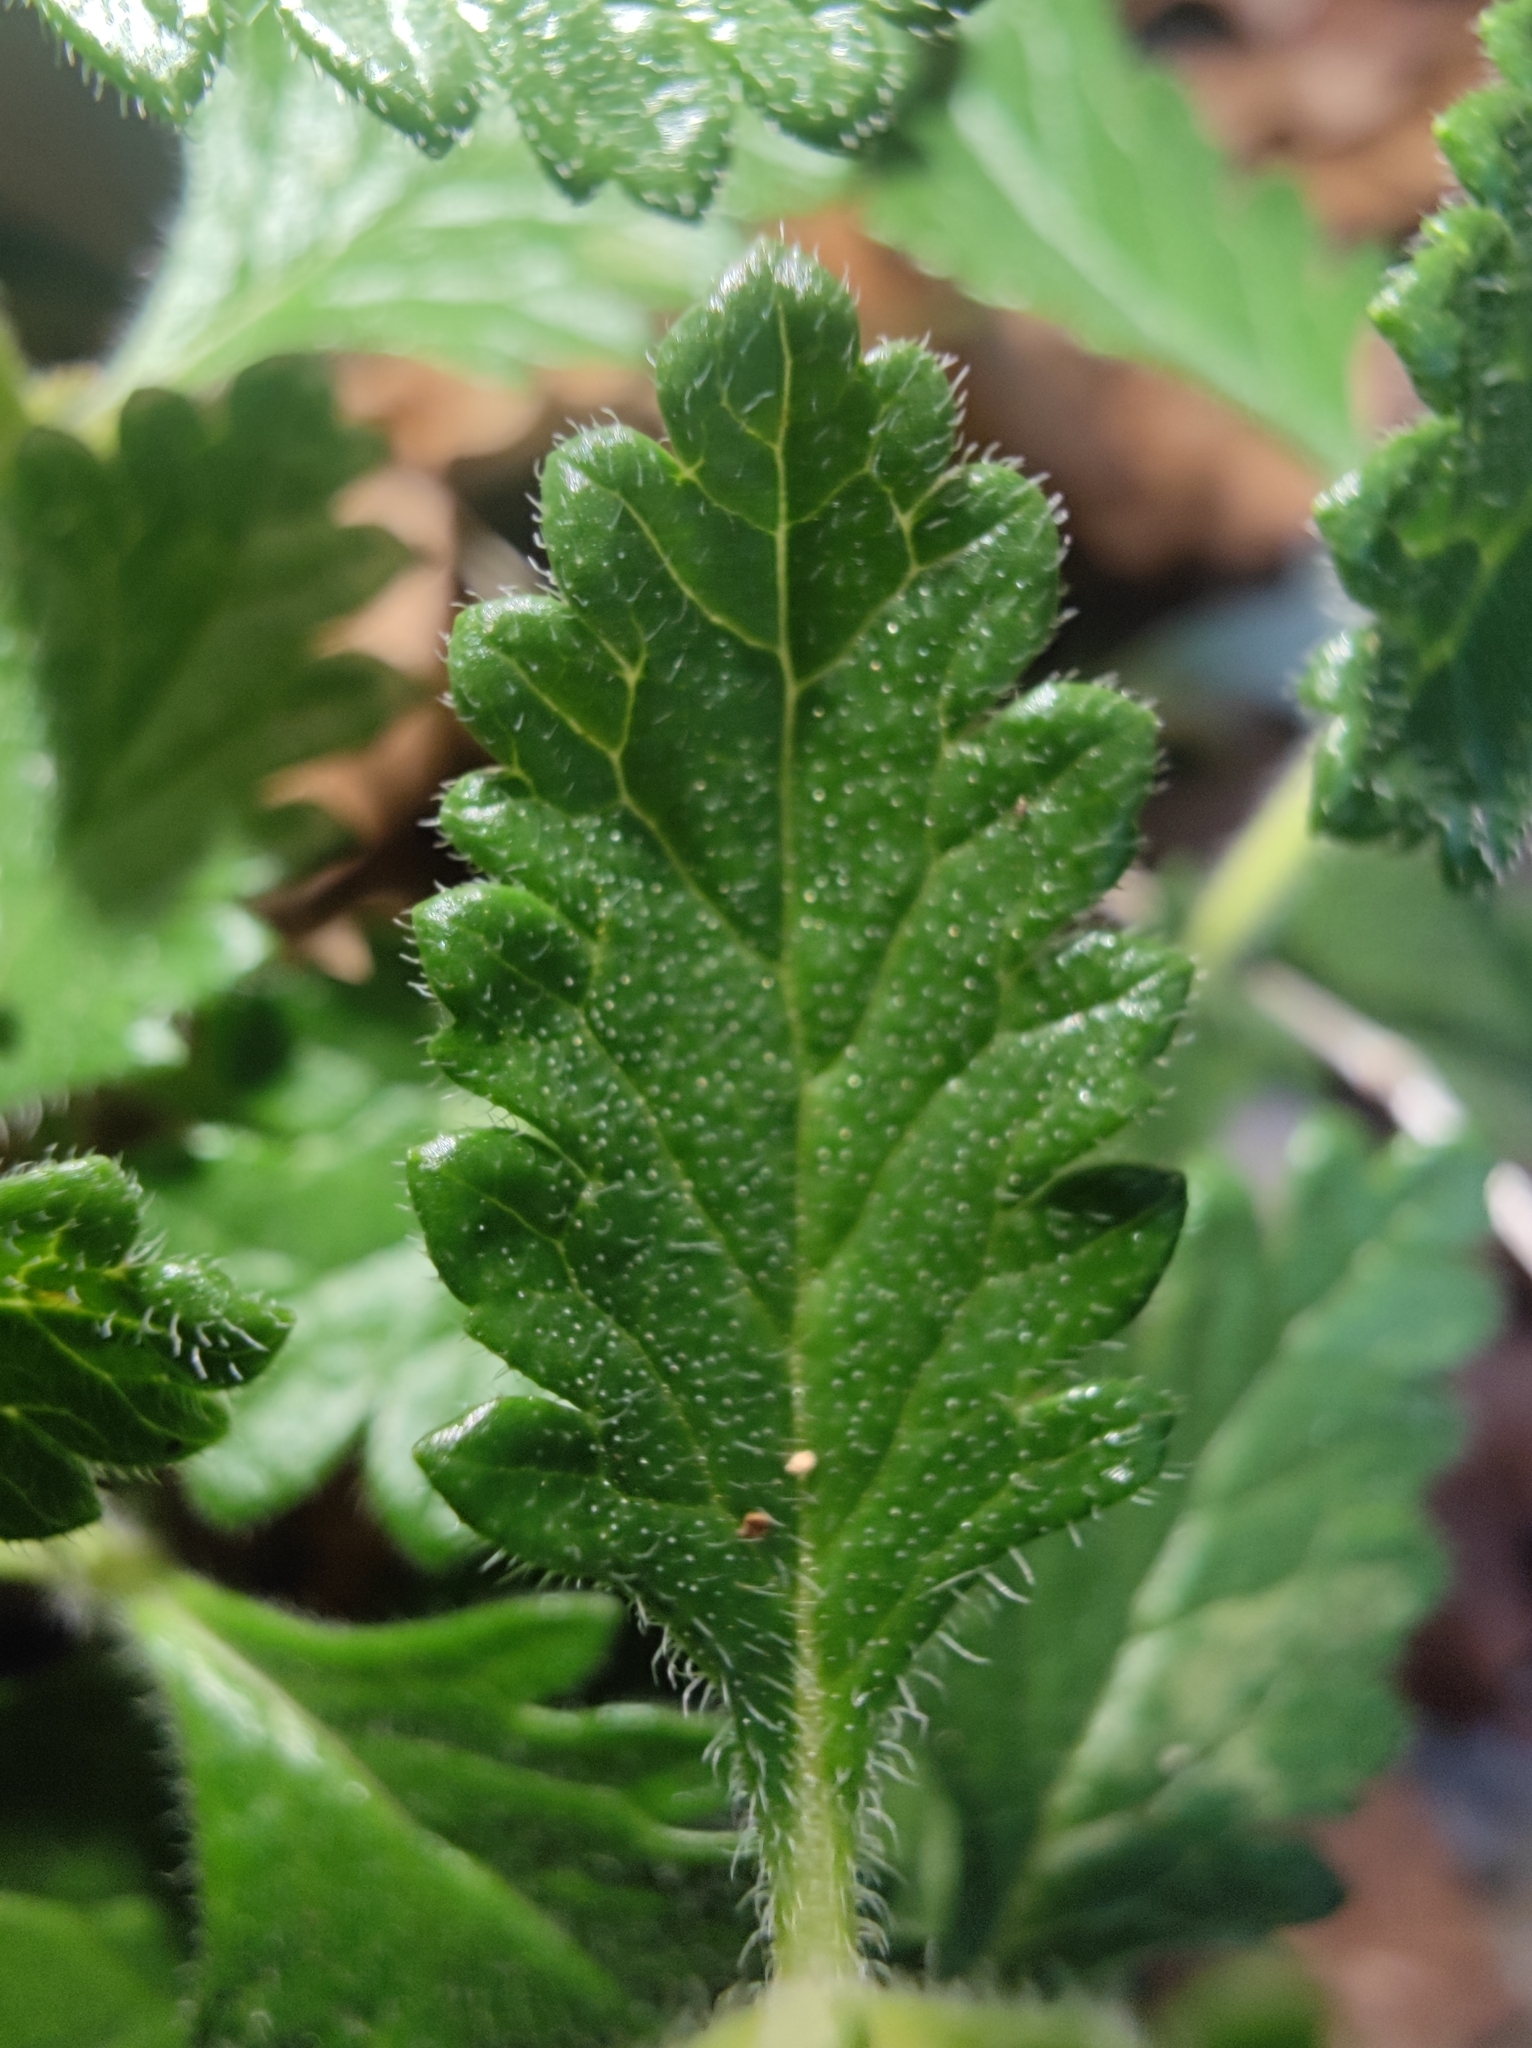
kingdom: Plantae
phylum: Tracheophyta
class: Magnoliopsida
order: Lamiales
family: Lamiaceae
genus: Teucrium
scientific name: Teucrium chamaedrys
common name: Wall germander
